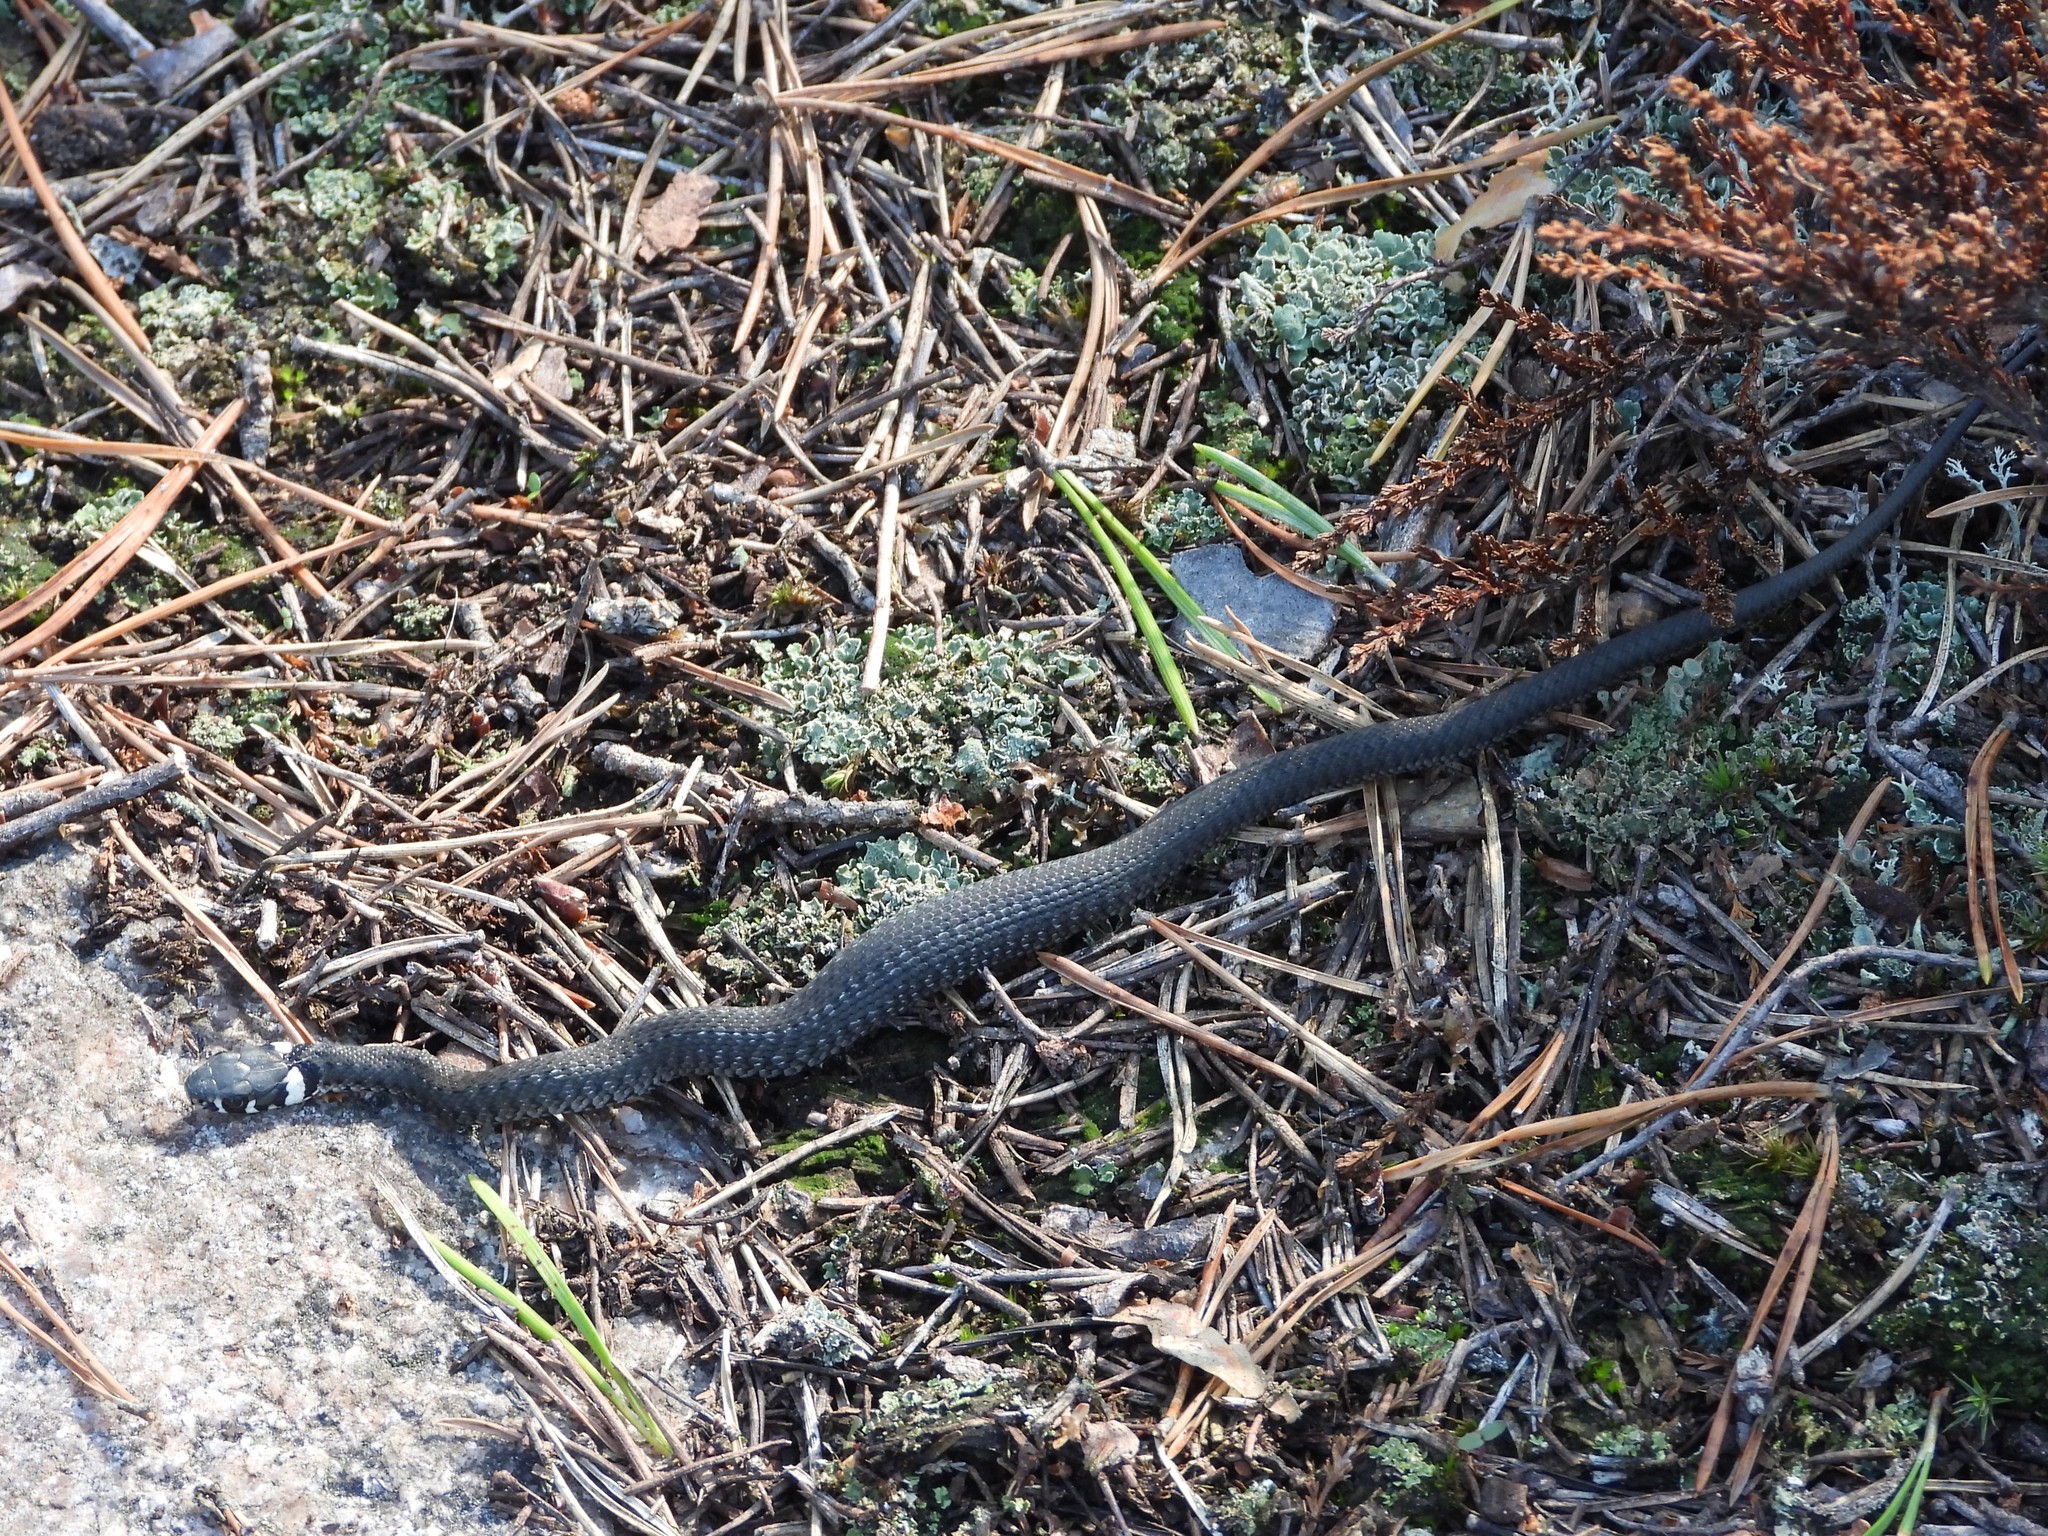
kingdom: Animalia
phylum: Chordata
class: Squamata
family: Colubridae
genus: Natrix
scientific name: Natrix natrix
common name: Grass snake
